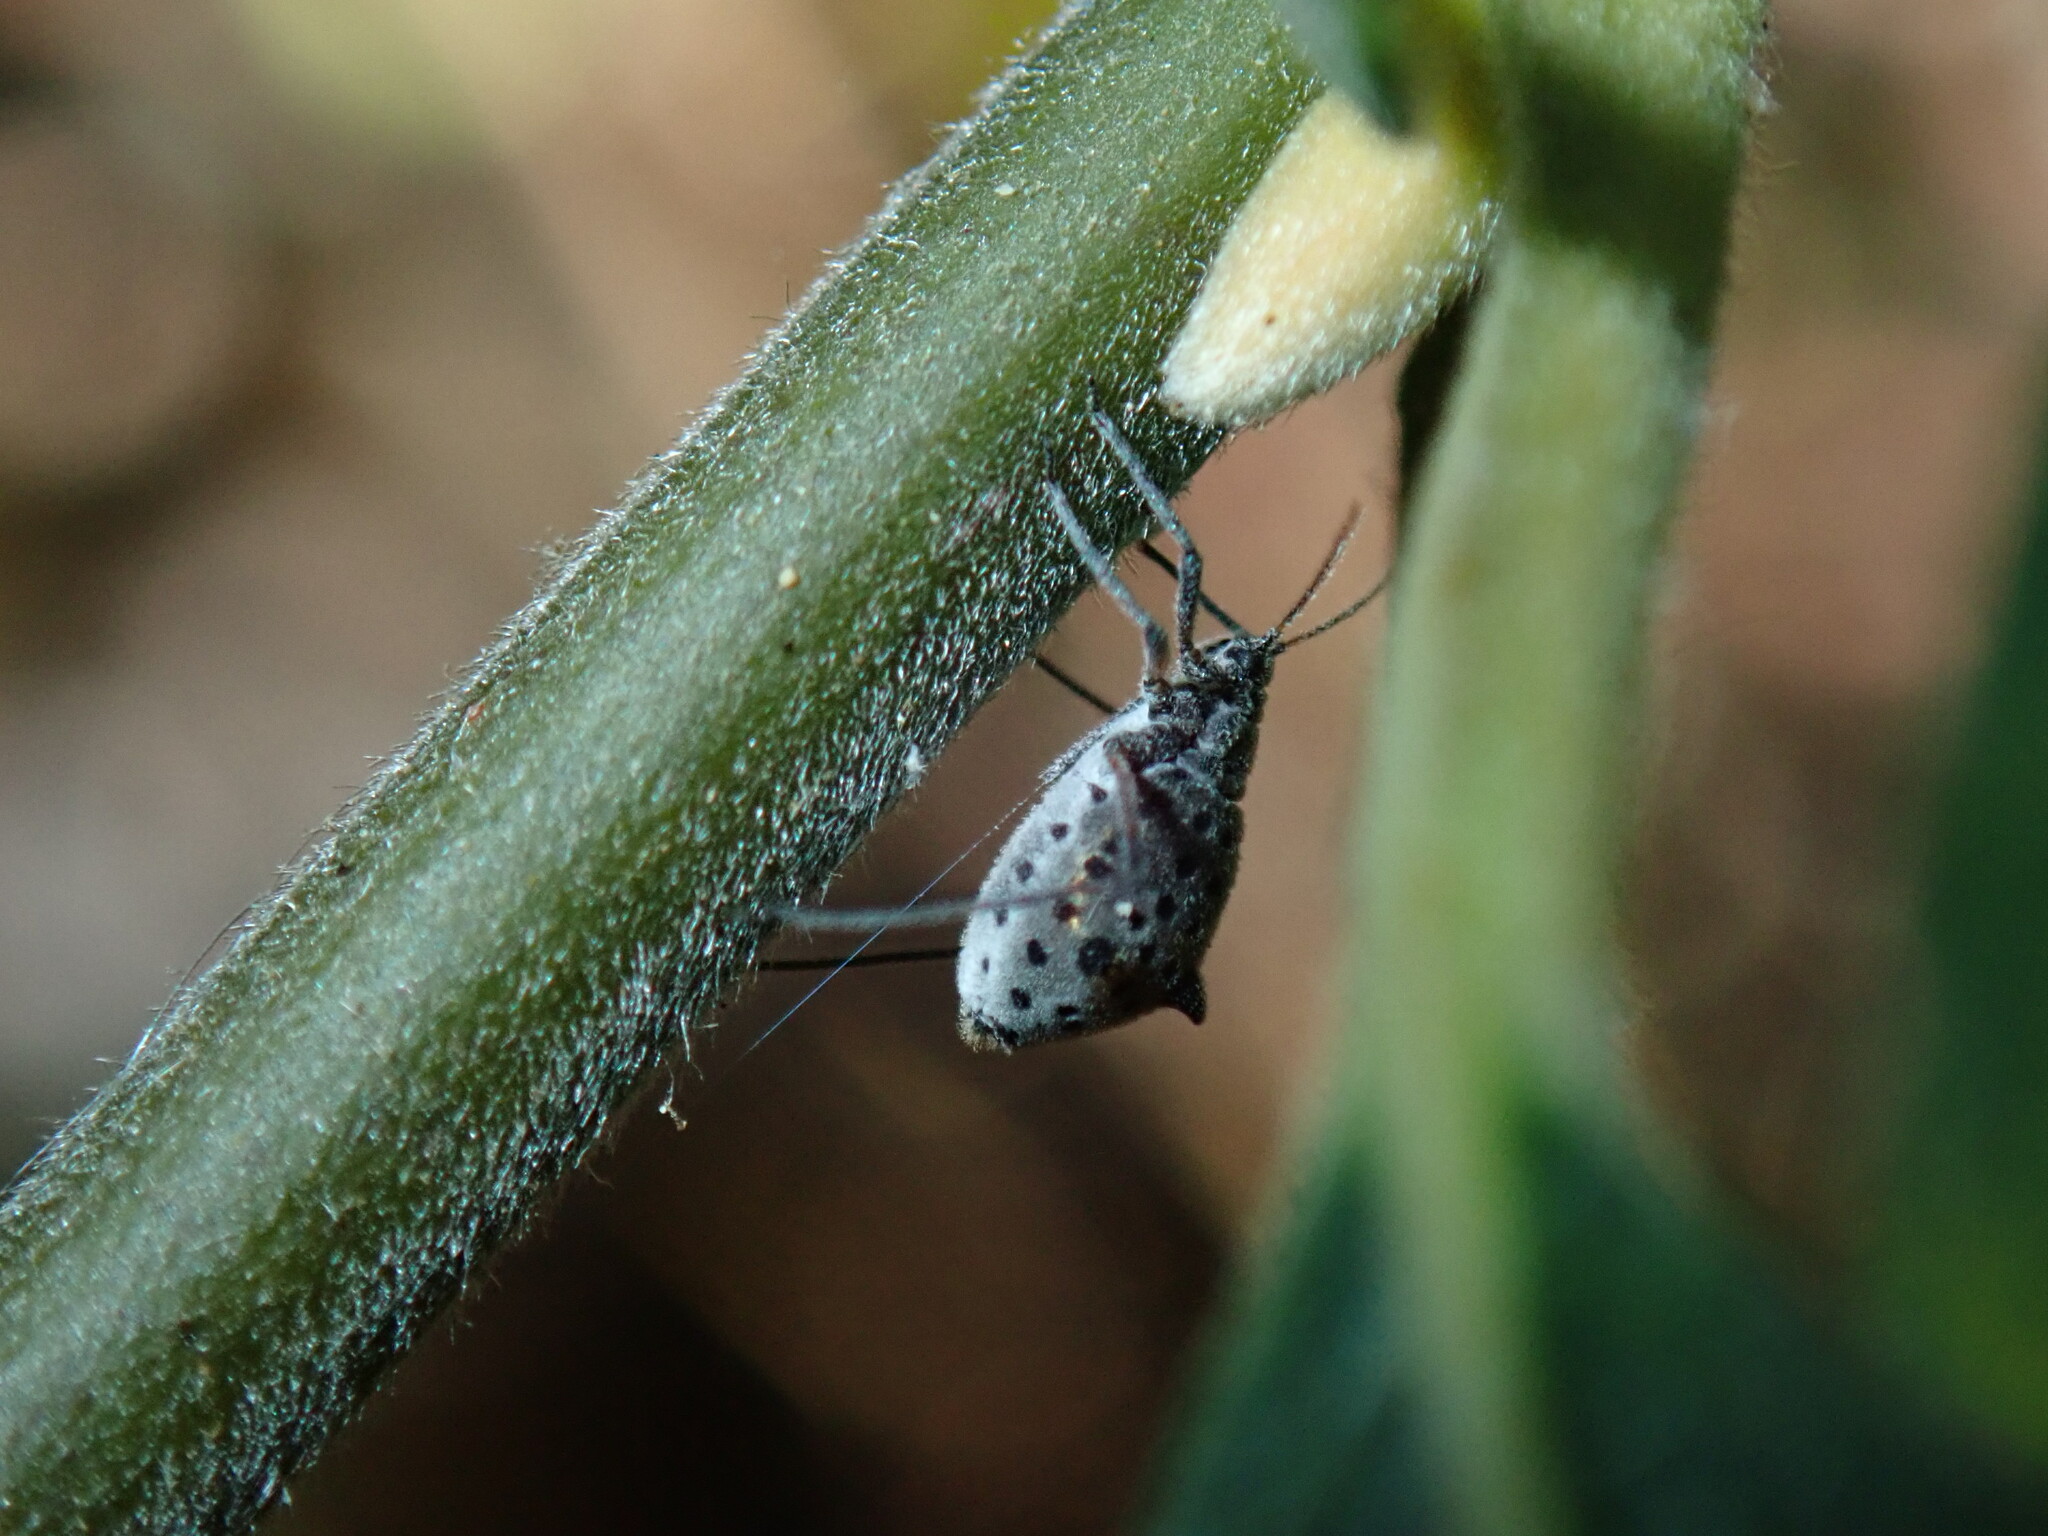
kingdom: Animalia
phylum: Arthropoda
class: Insecta
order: Hemiptera
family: Aphididae
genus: Tuberolachnus
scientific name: Tuberolachnus salignus
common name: Giant willow aphid
